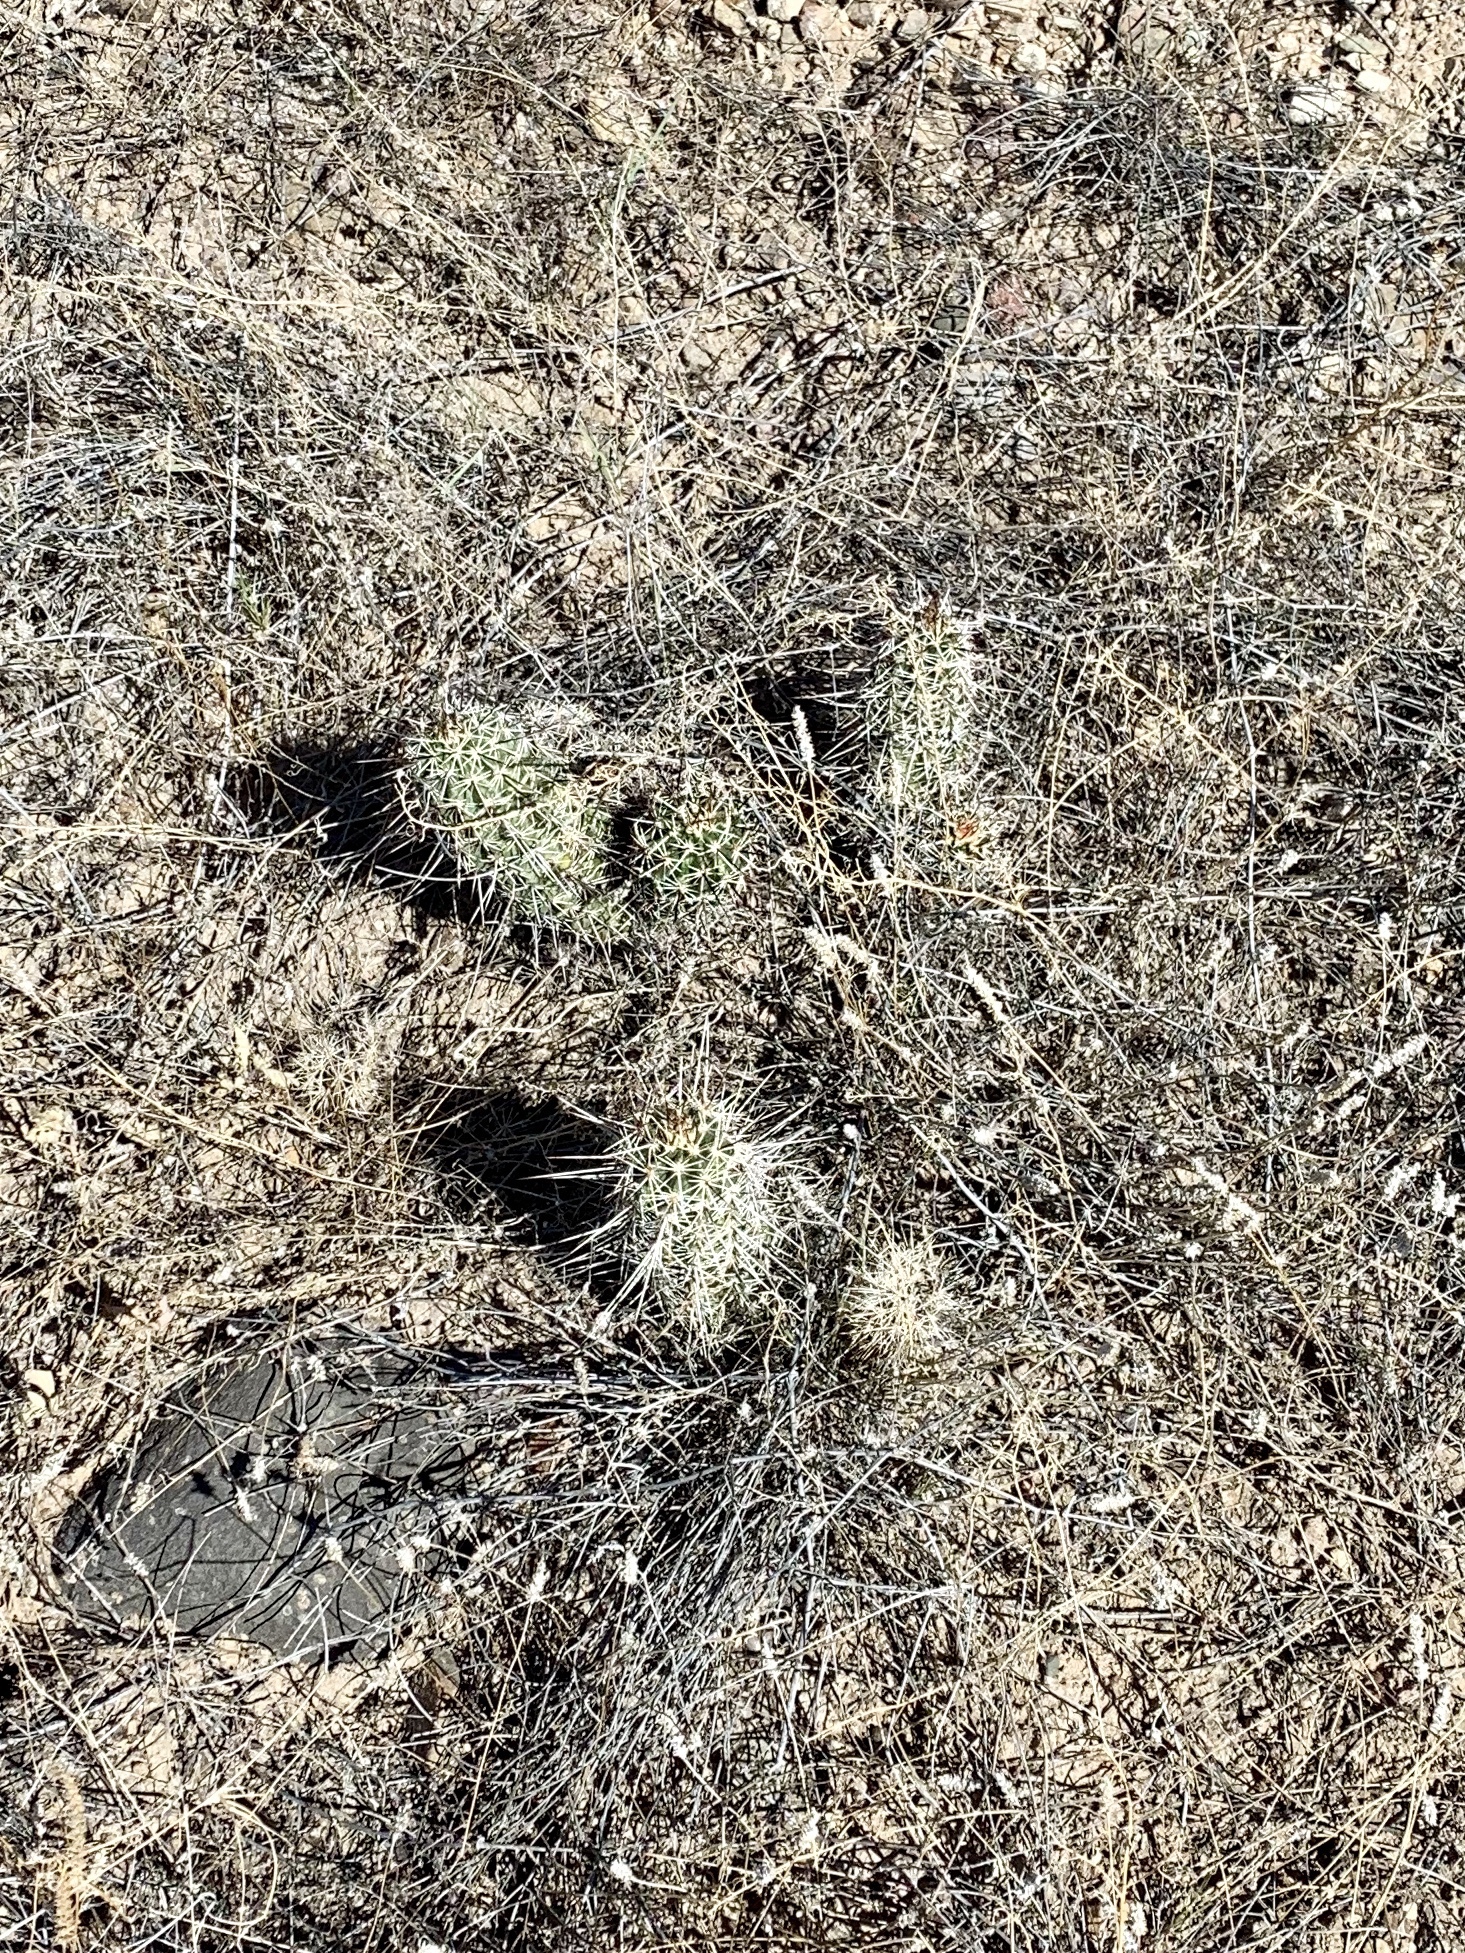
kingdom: Plantae
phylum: Tracheophyta
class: Magnoliopsida
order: Caryophyllales
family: Cactaceae
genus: Echinocereus
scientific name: Echinocereus fasciculatus
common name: Bundle hedgehog
